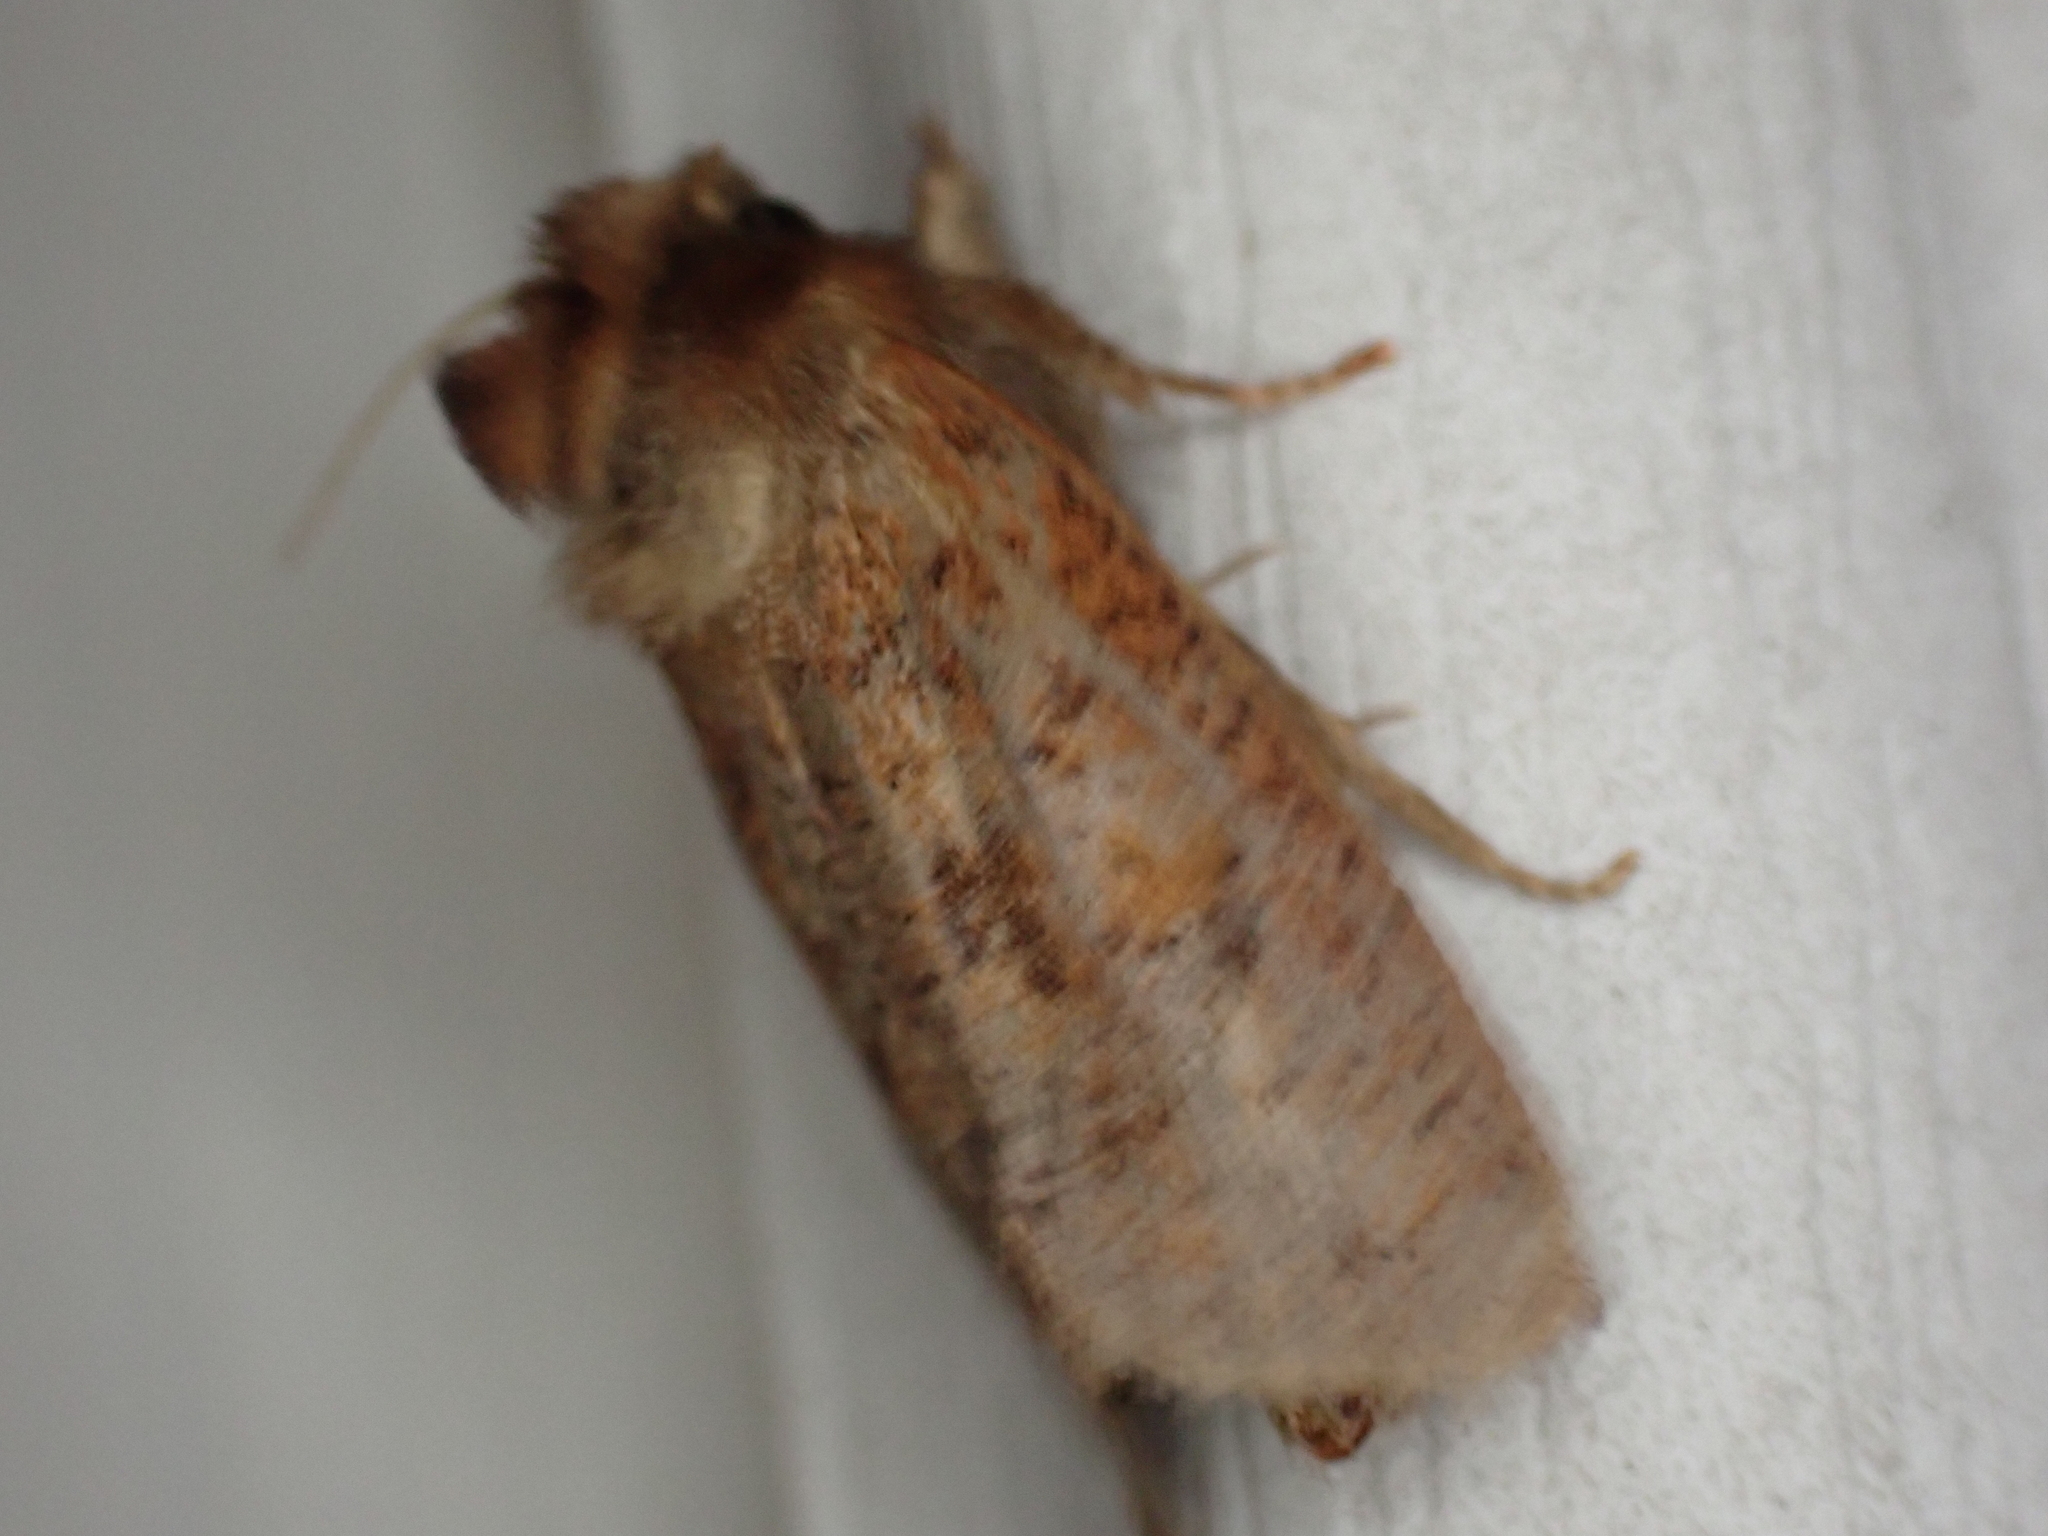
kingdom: Animalia
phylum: Arthropoda
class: Insecta
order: Lepidoptera
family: Tineidae
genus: Acrolophus
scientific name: Acrolophus plumifrontella
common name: Eastern grass tubeworm moth
